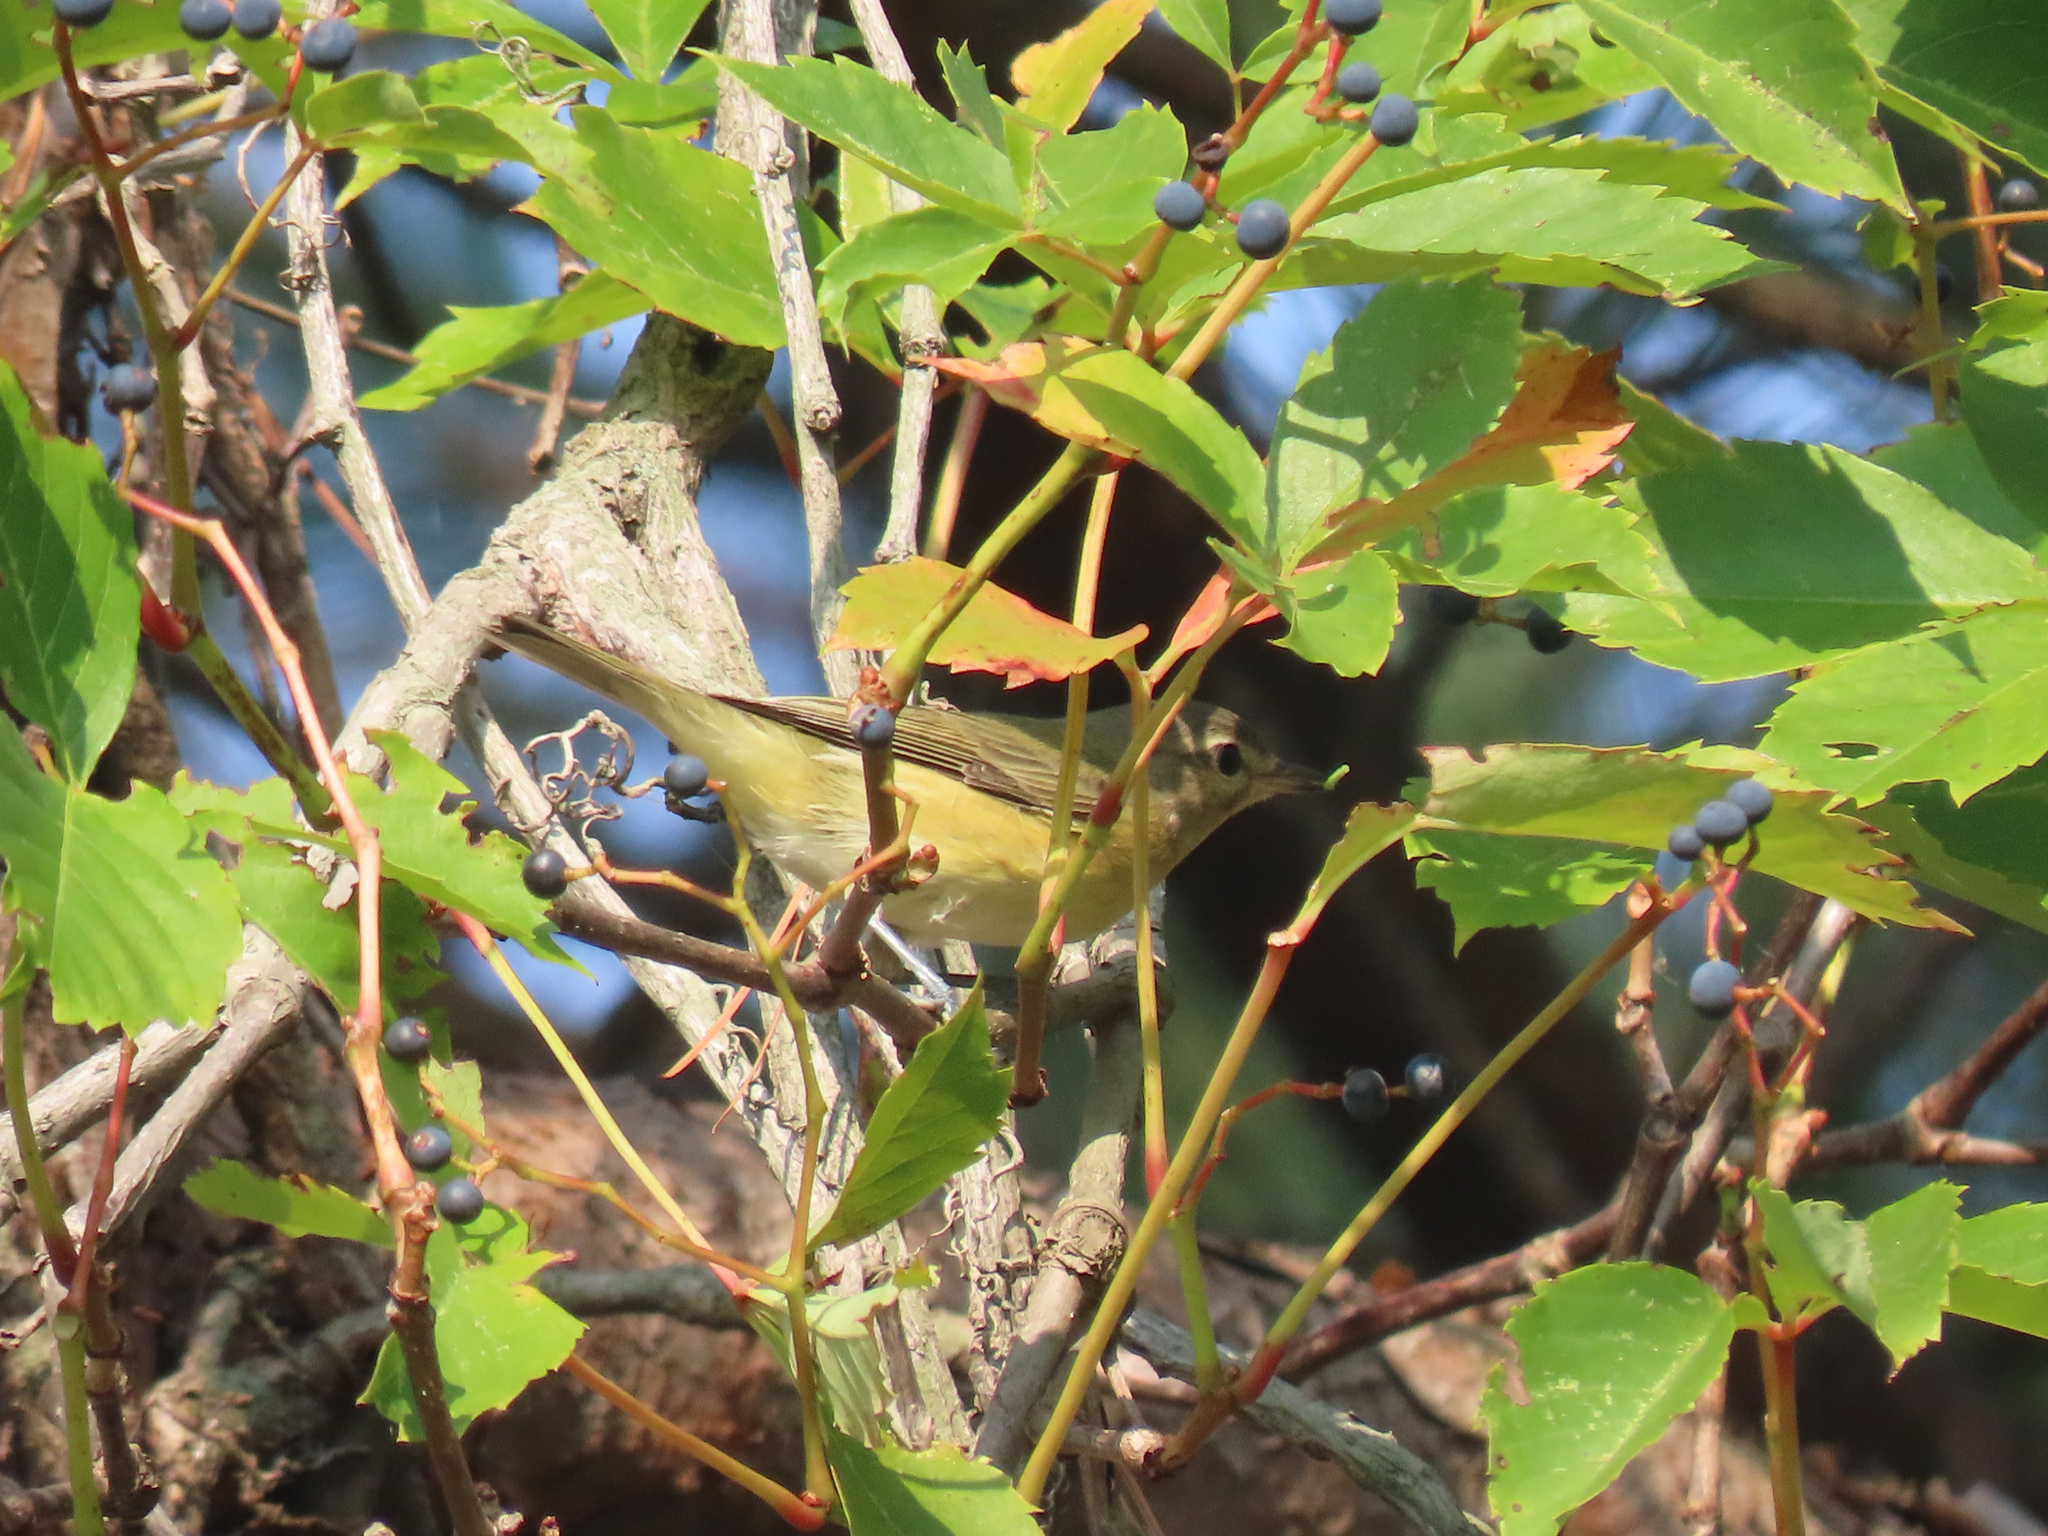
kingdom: Animalia
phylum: Chordata
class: Aves
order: Passeriformes
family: Vireonidae
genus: Vireo
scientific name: Vireo gilvus
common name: Warbling vireo
